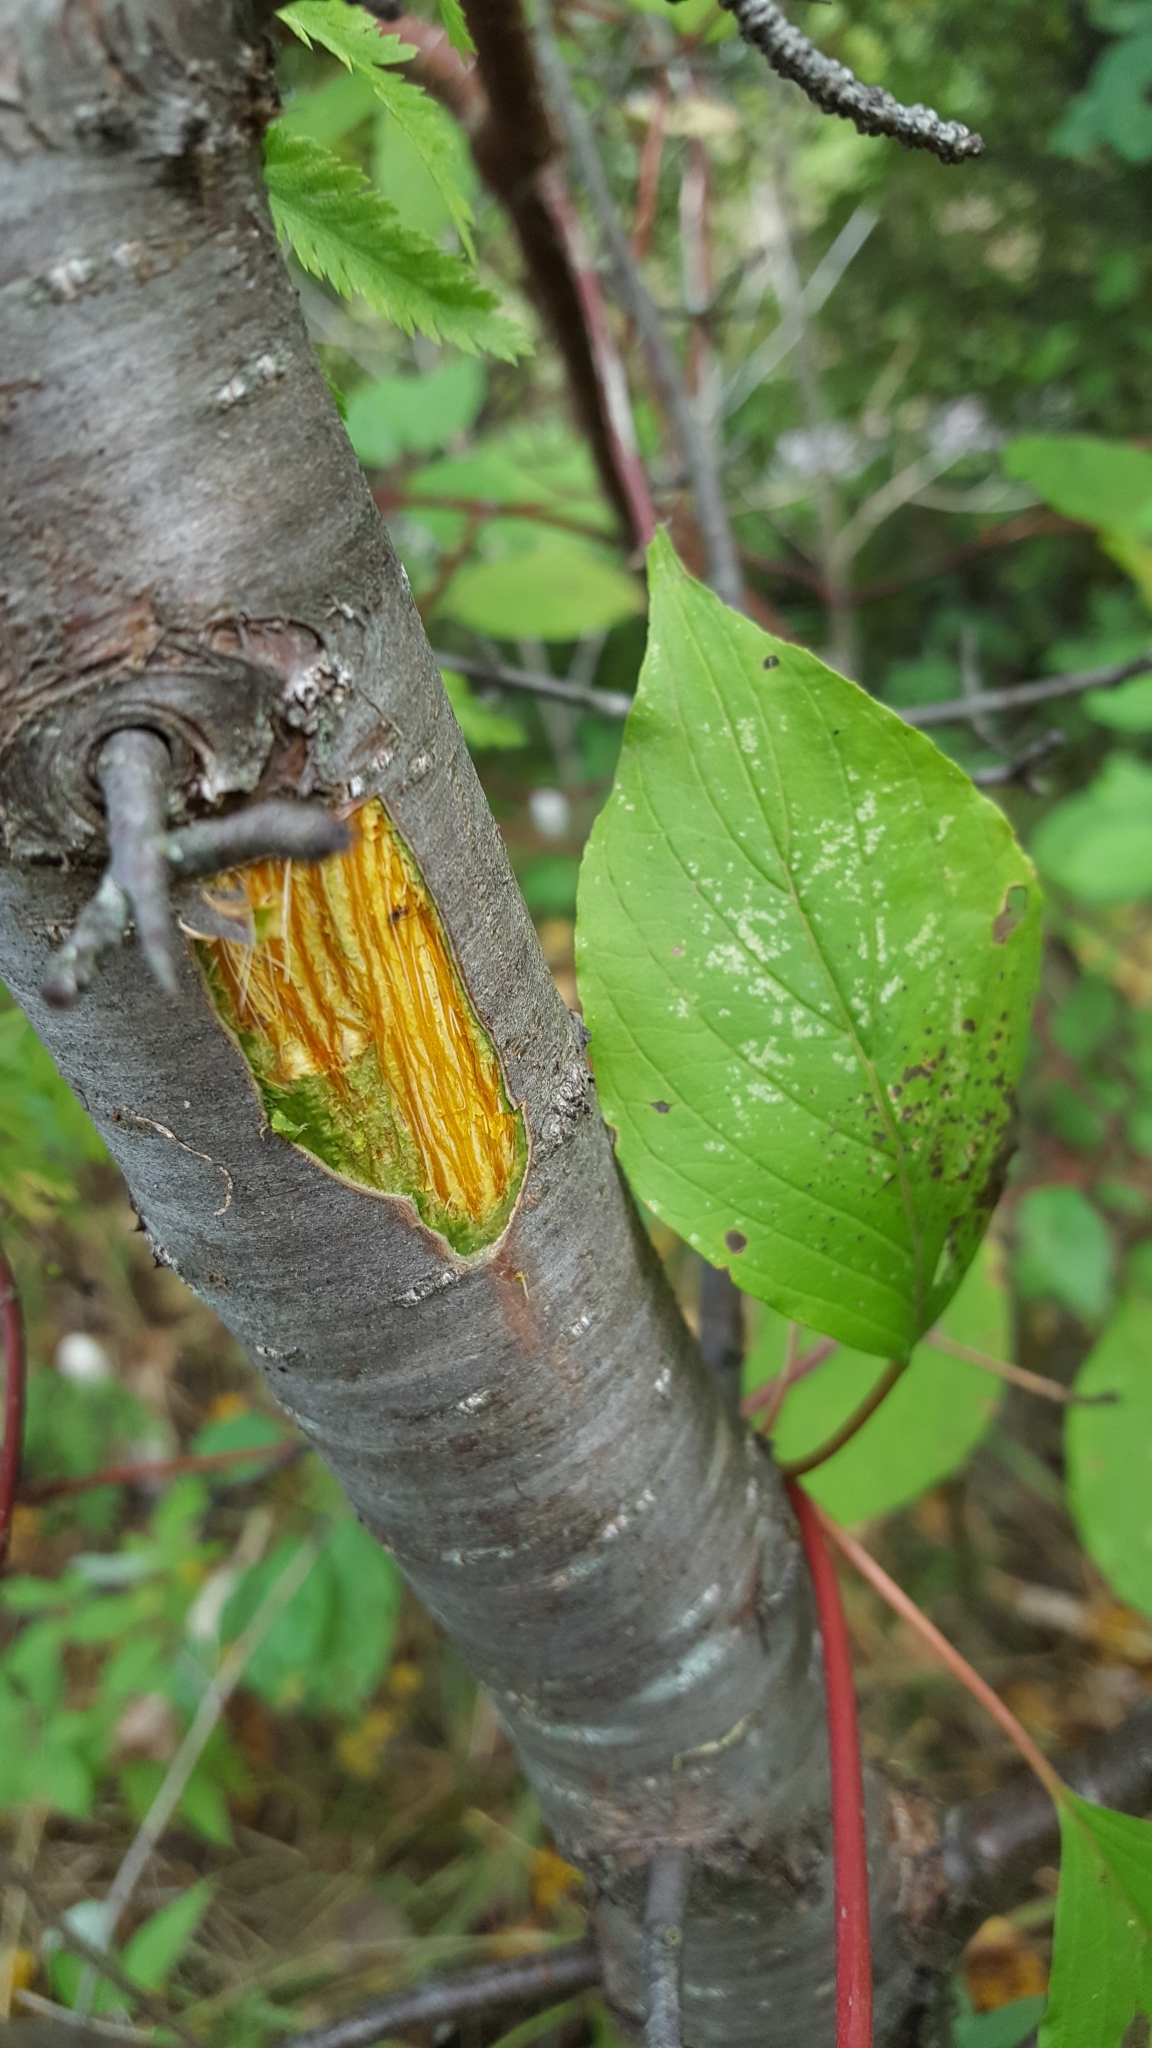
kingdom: Plantae
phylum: Tracheophyta
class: Magnoliopsida
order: Rosales
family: Rhamnaceae
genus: Rhamnus
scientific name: Rhamnus cathartica
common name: Common buckthorn
